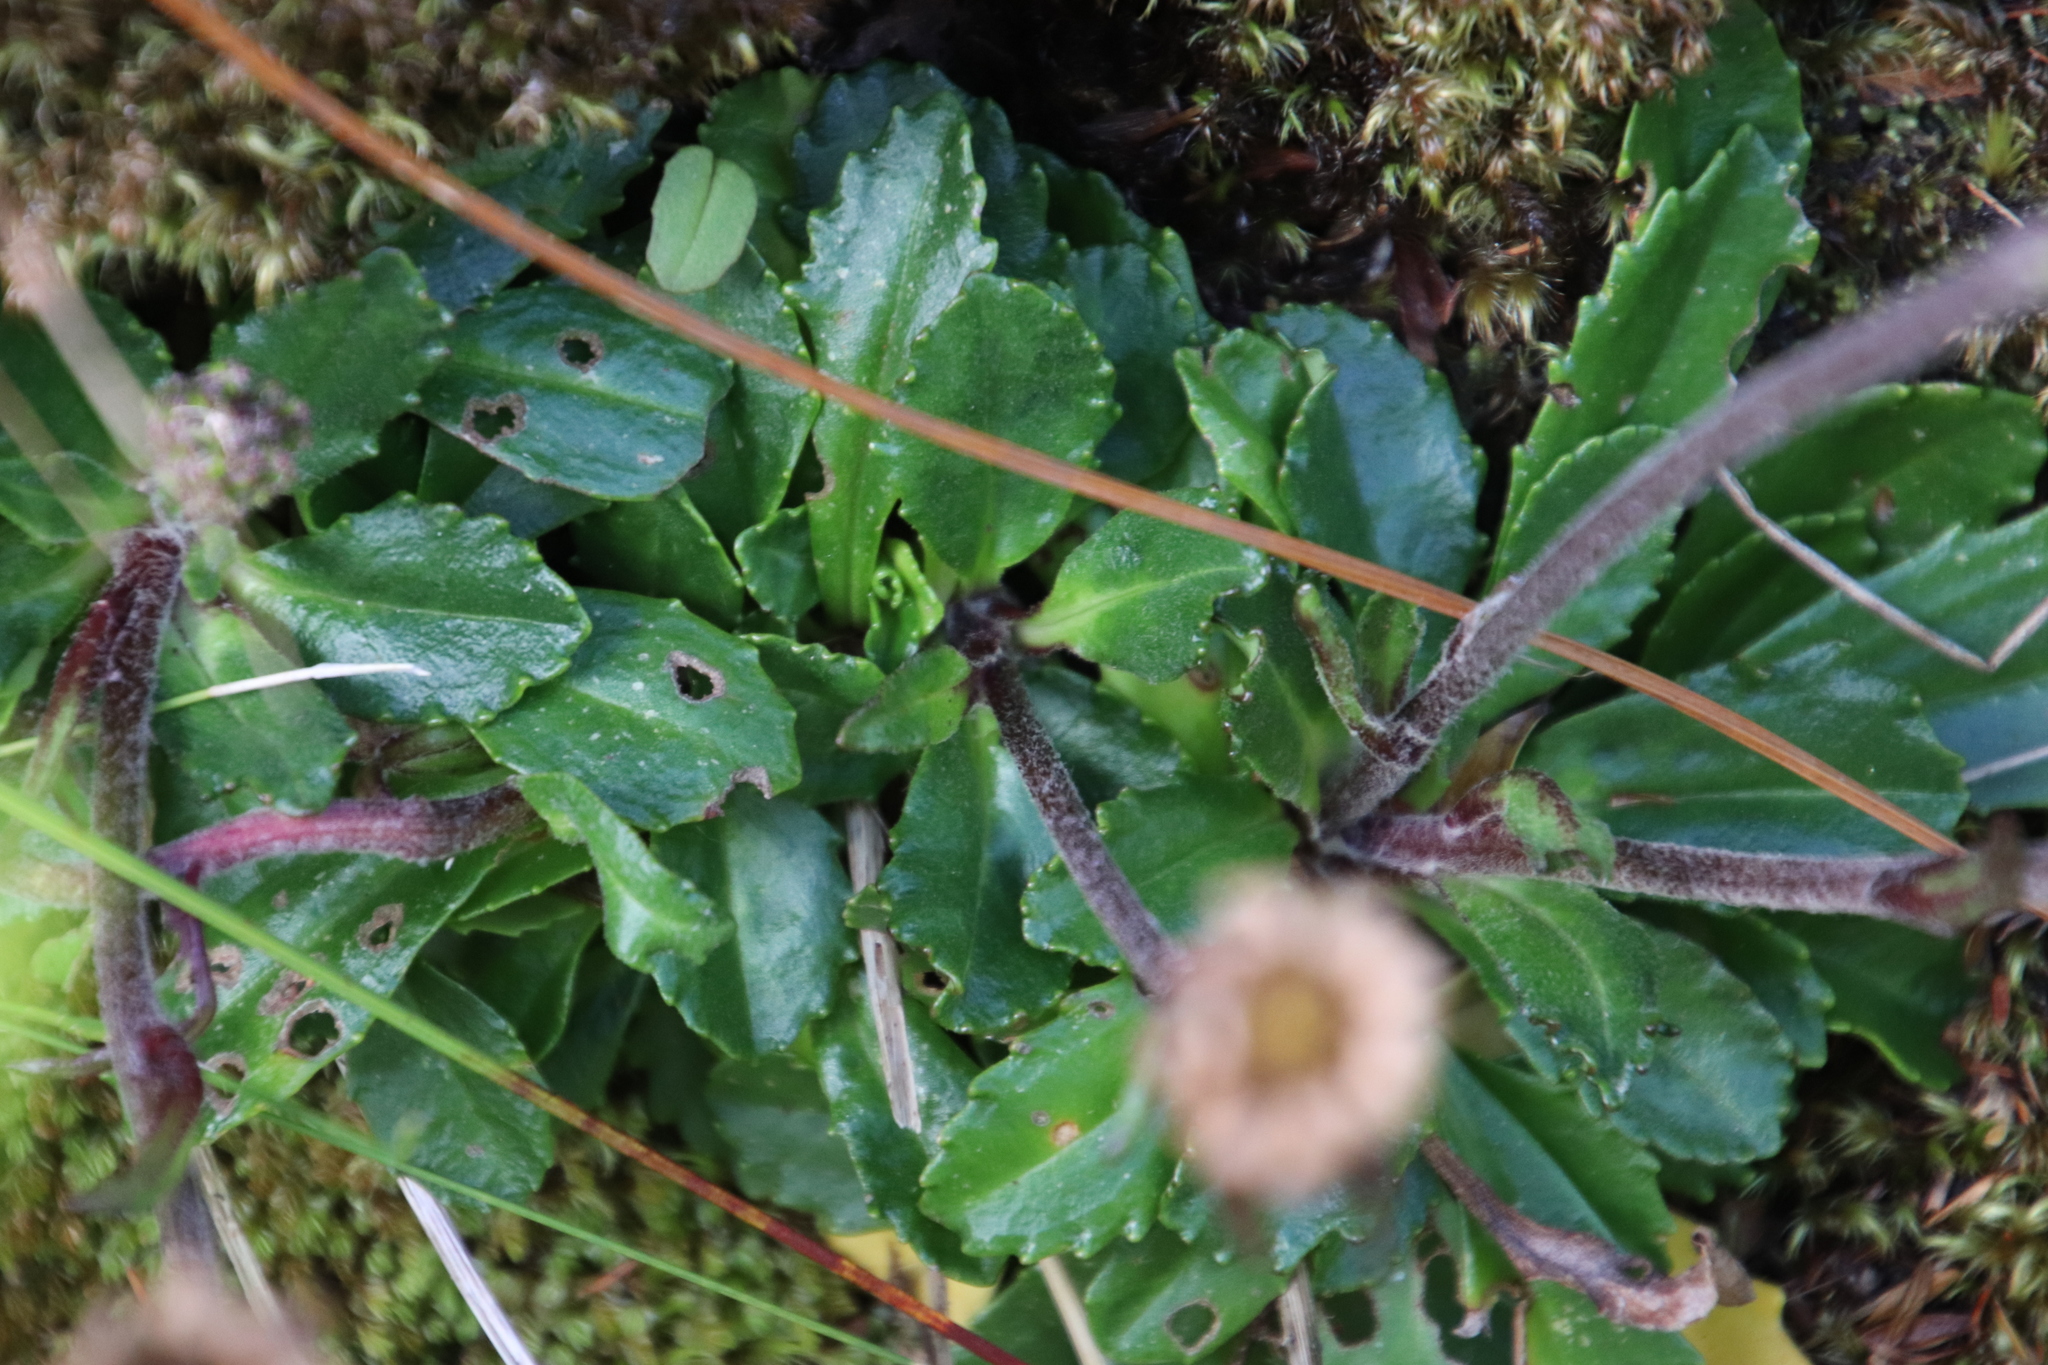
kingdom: Plantae
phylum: Tracheophyta
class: Magnoliopsida
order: Asterales
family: Asteraceae
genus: Zyrphelis
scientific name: Zyrphelis crenata
